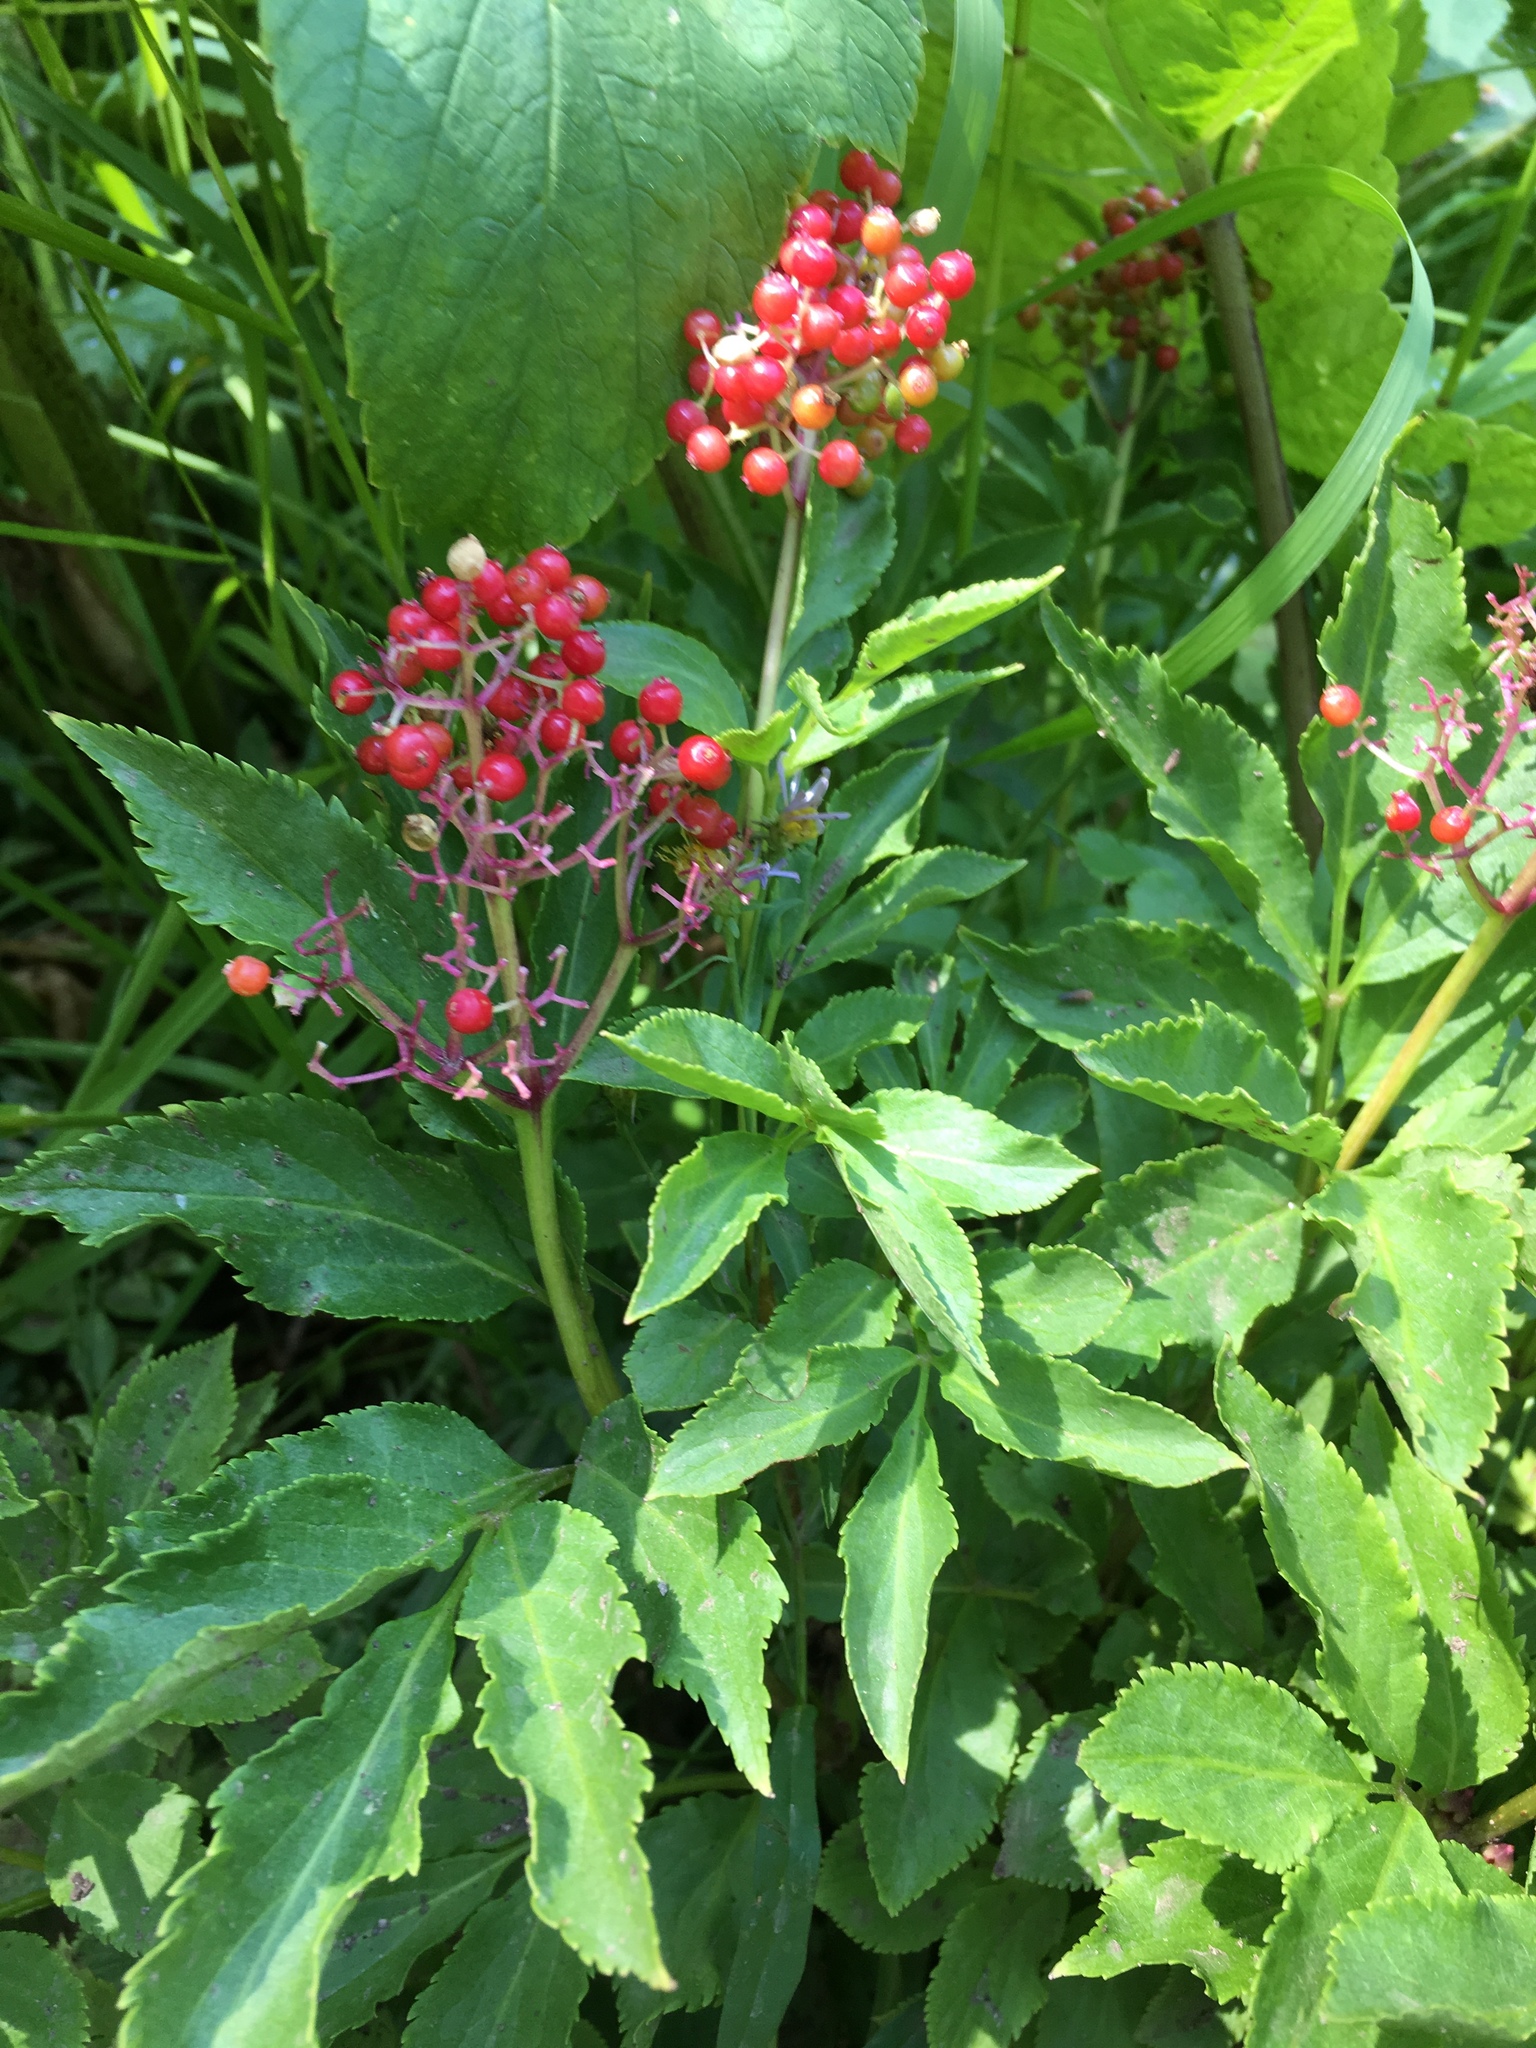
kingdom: Plantae
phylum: Tracheophyta
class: Magnoliopsida
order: Dipsacales
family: Viburnaceae
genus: Sambucus
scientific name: Sambucus racemosa
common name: Red-berried elder
